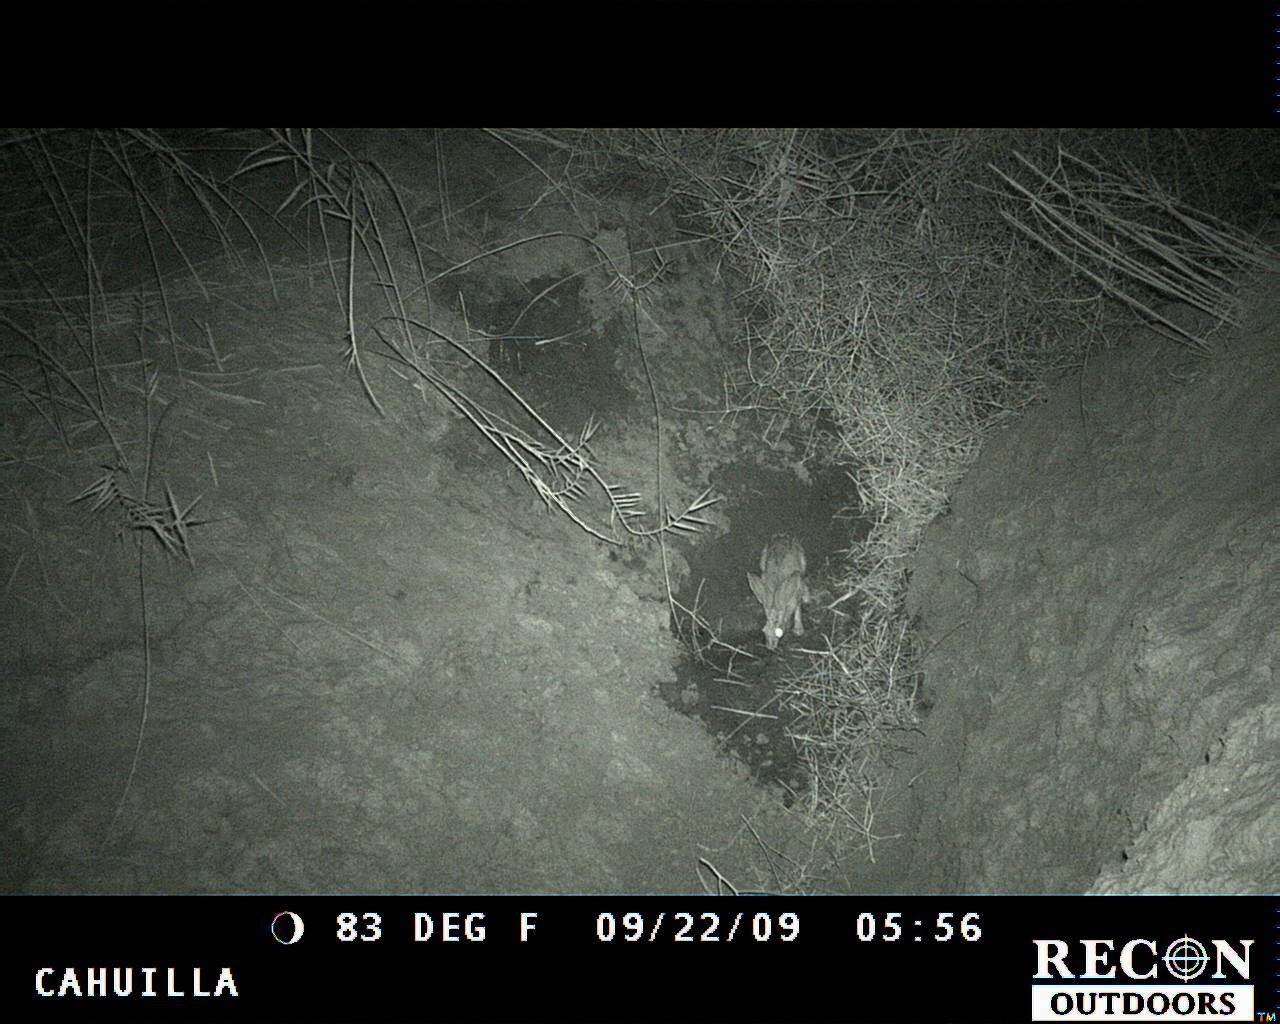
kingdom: Animalia
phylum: Chordata
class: Mammalia
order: Lagomorpha
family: Leporidae
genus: Lepus
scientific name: Lepus californicus
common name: Black-tailed jackrabbit
